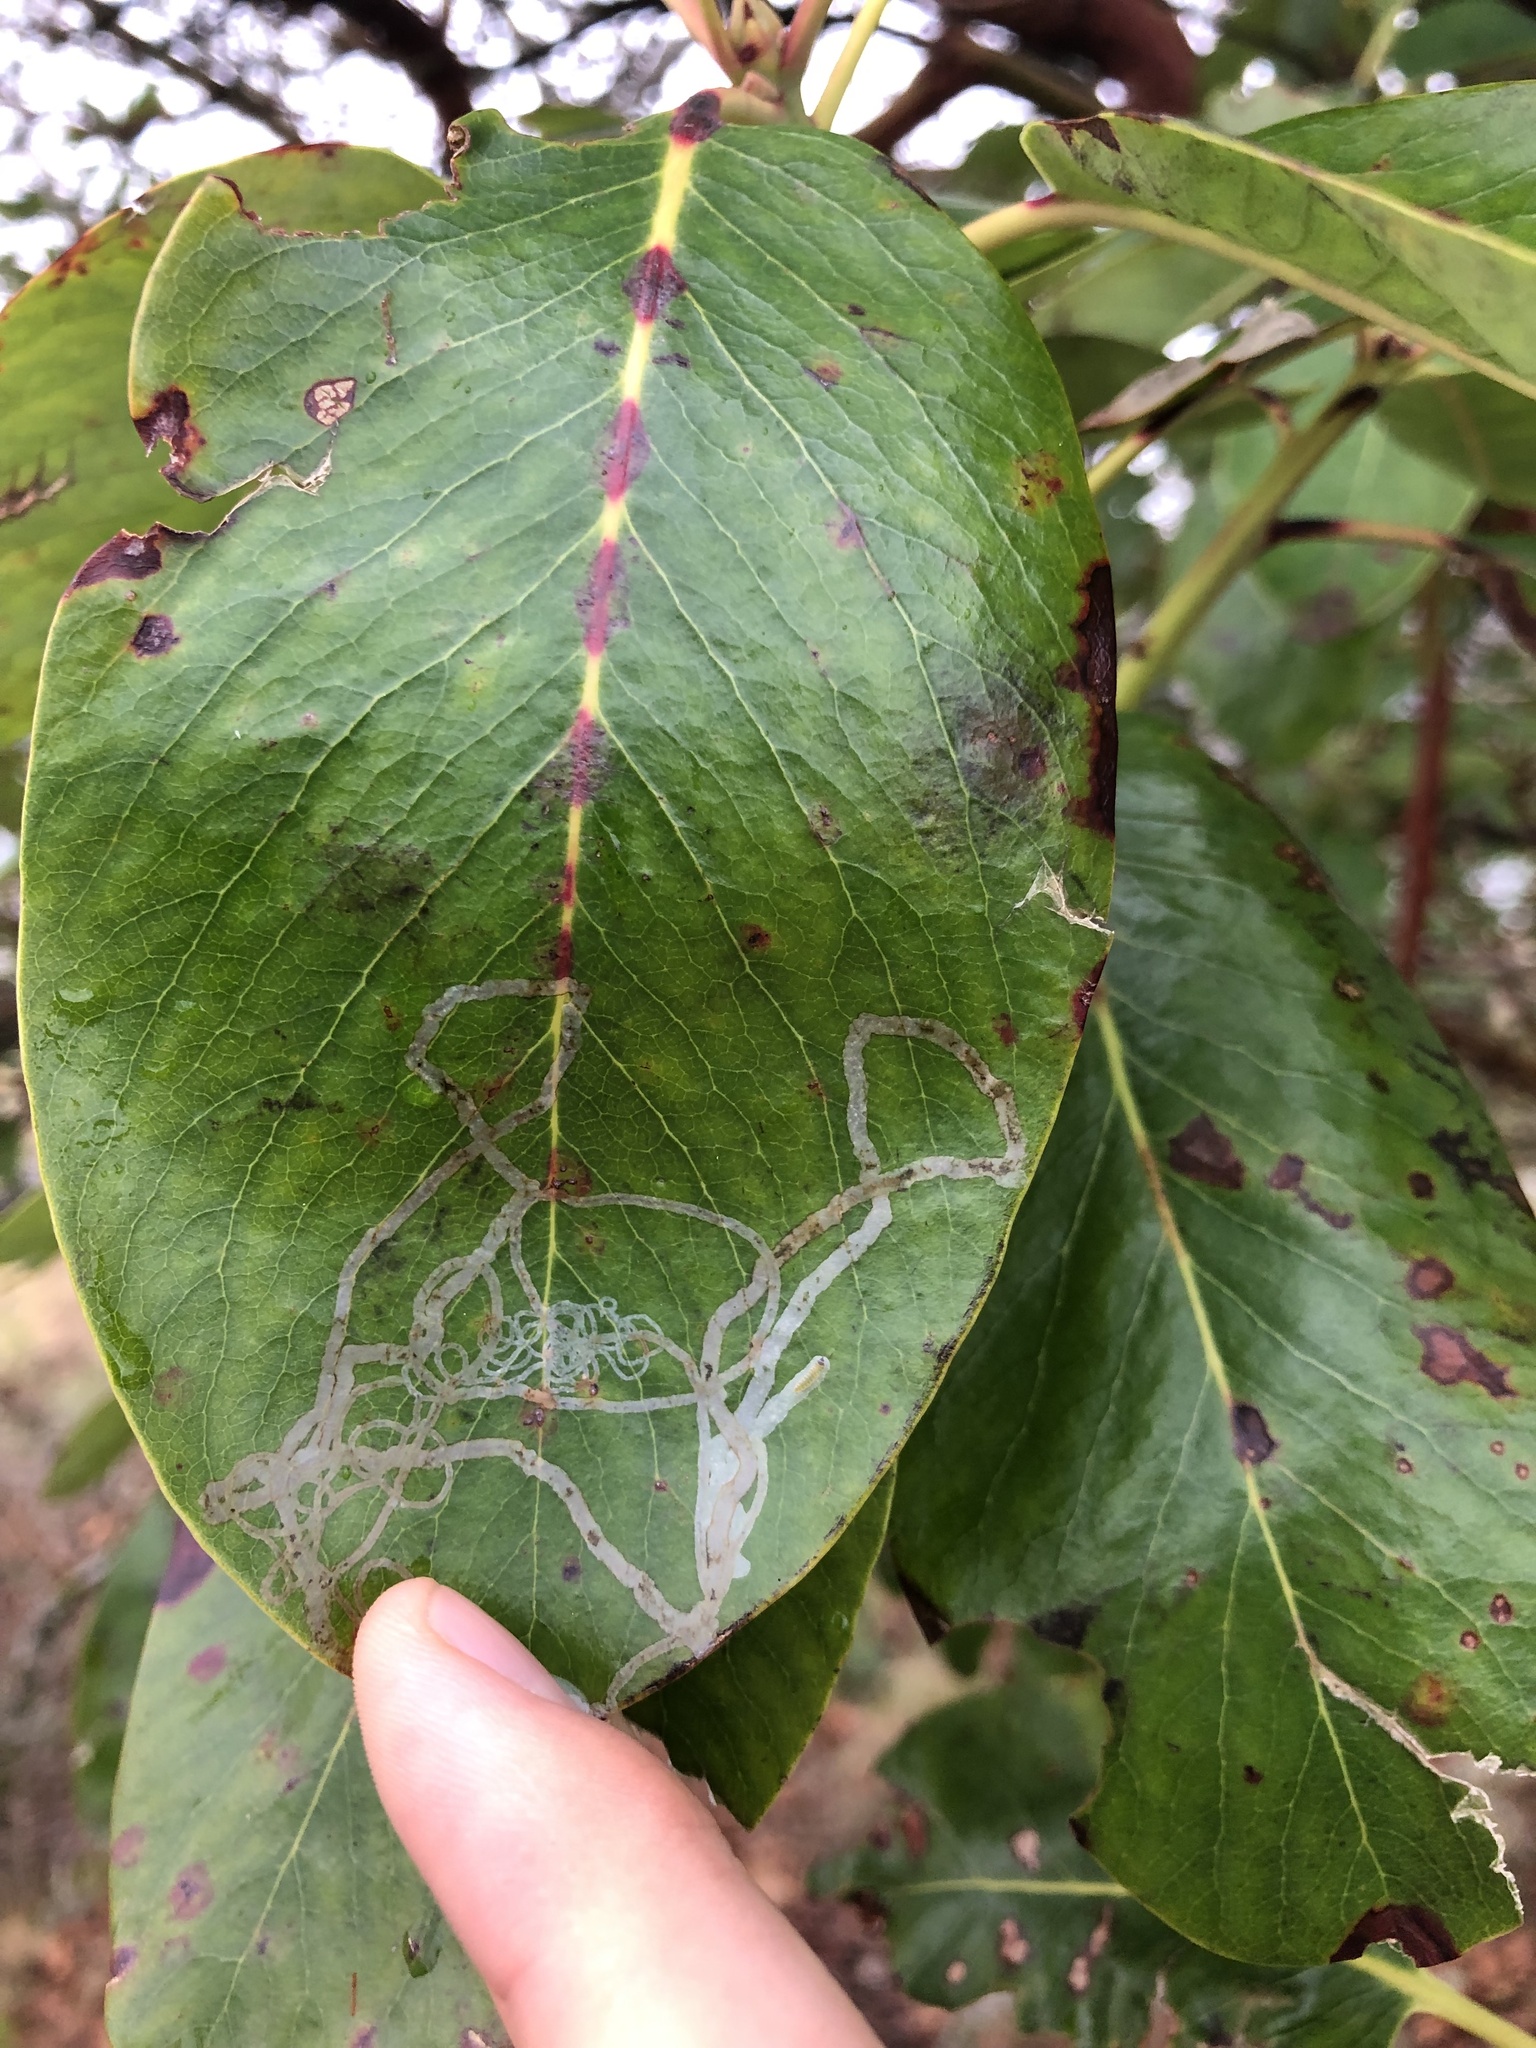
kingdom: Animalia
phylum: Arthropoda
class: Insecta
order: Lepidoptera
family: Gracillariidae
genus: Marmara
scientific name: Marmara arbutiella
